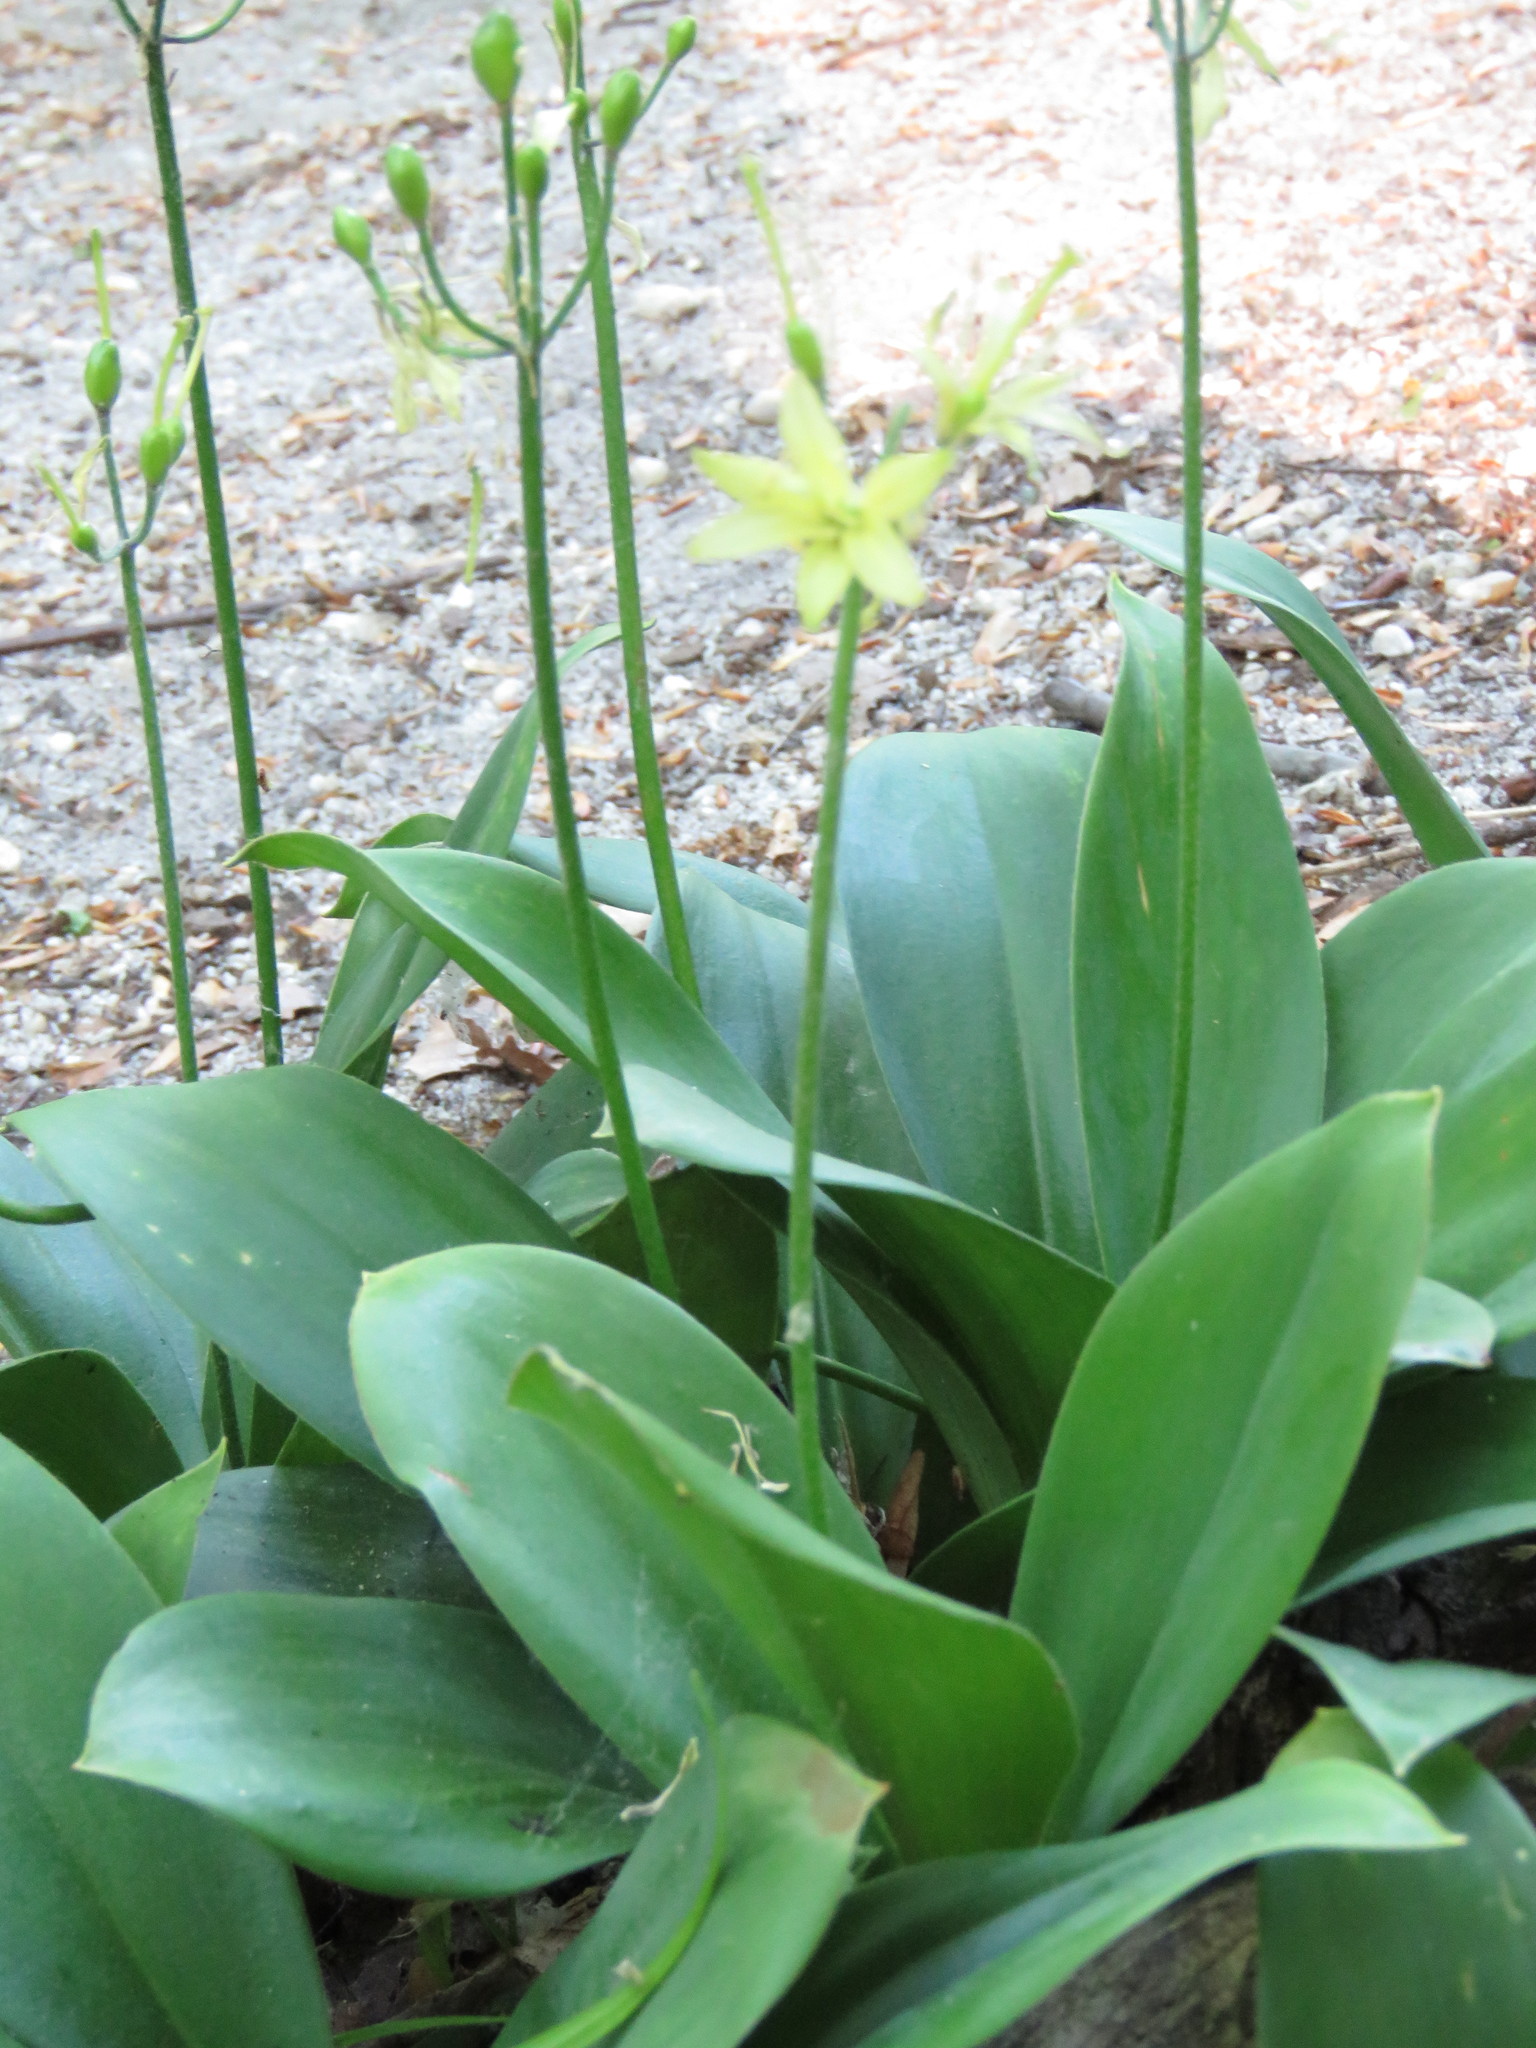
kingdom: Plantae
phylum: Tracheophyta
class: Liliopsida
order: Liliales
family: Liliaceae
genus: Clintonia
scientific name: Clintonia borealis
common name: Yellow clintonia
